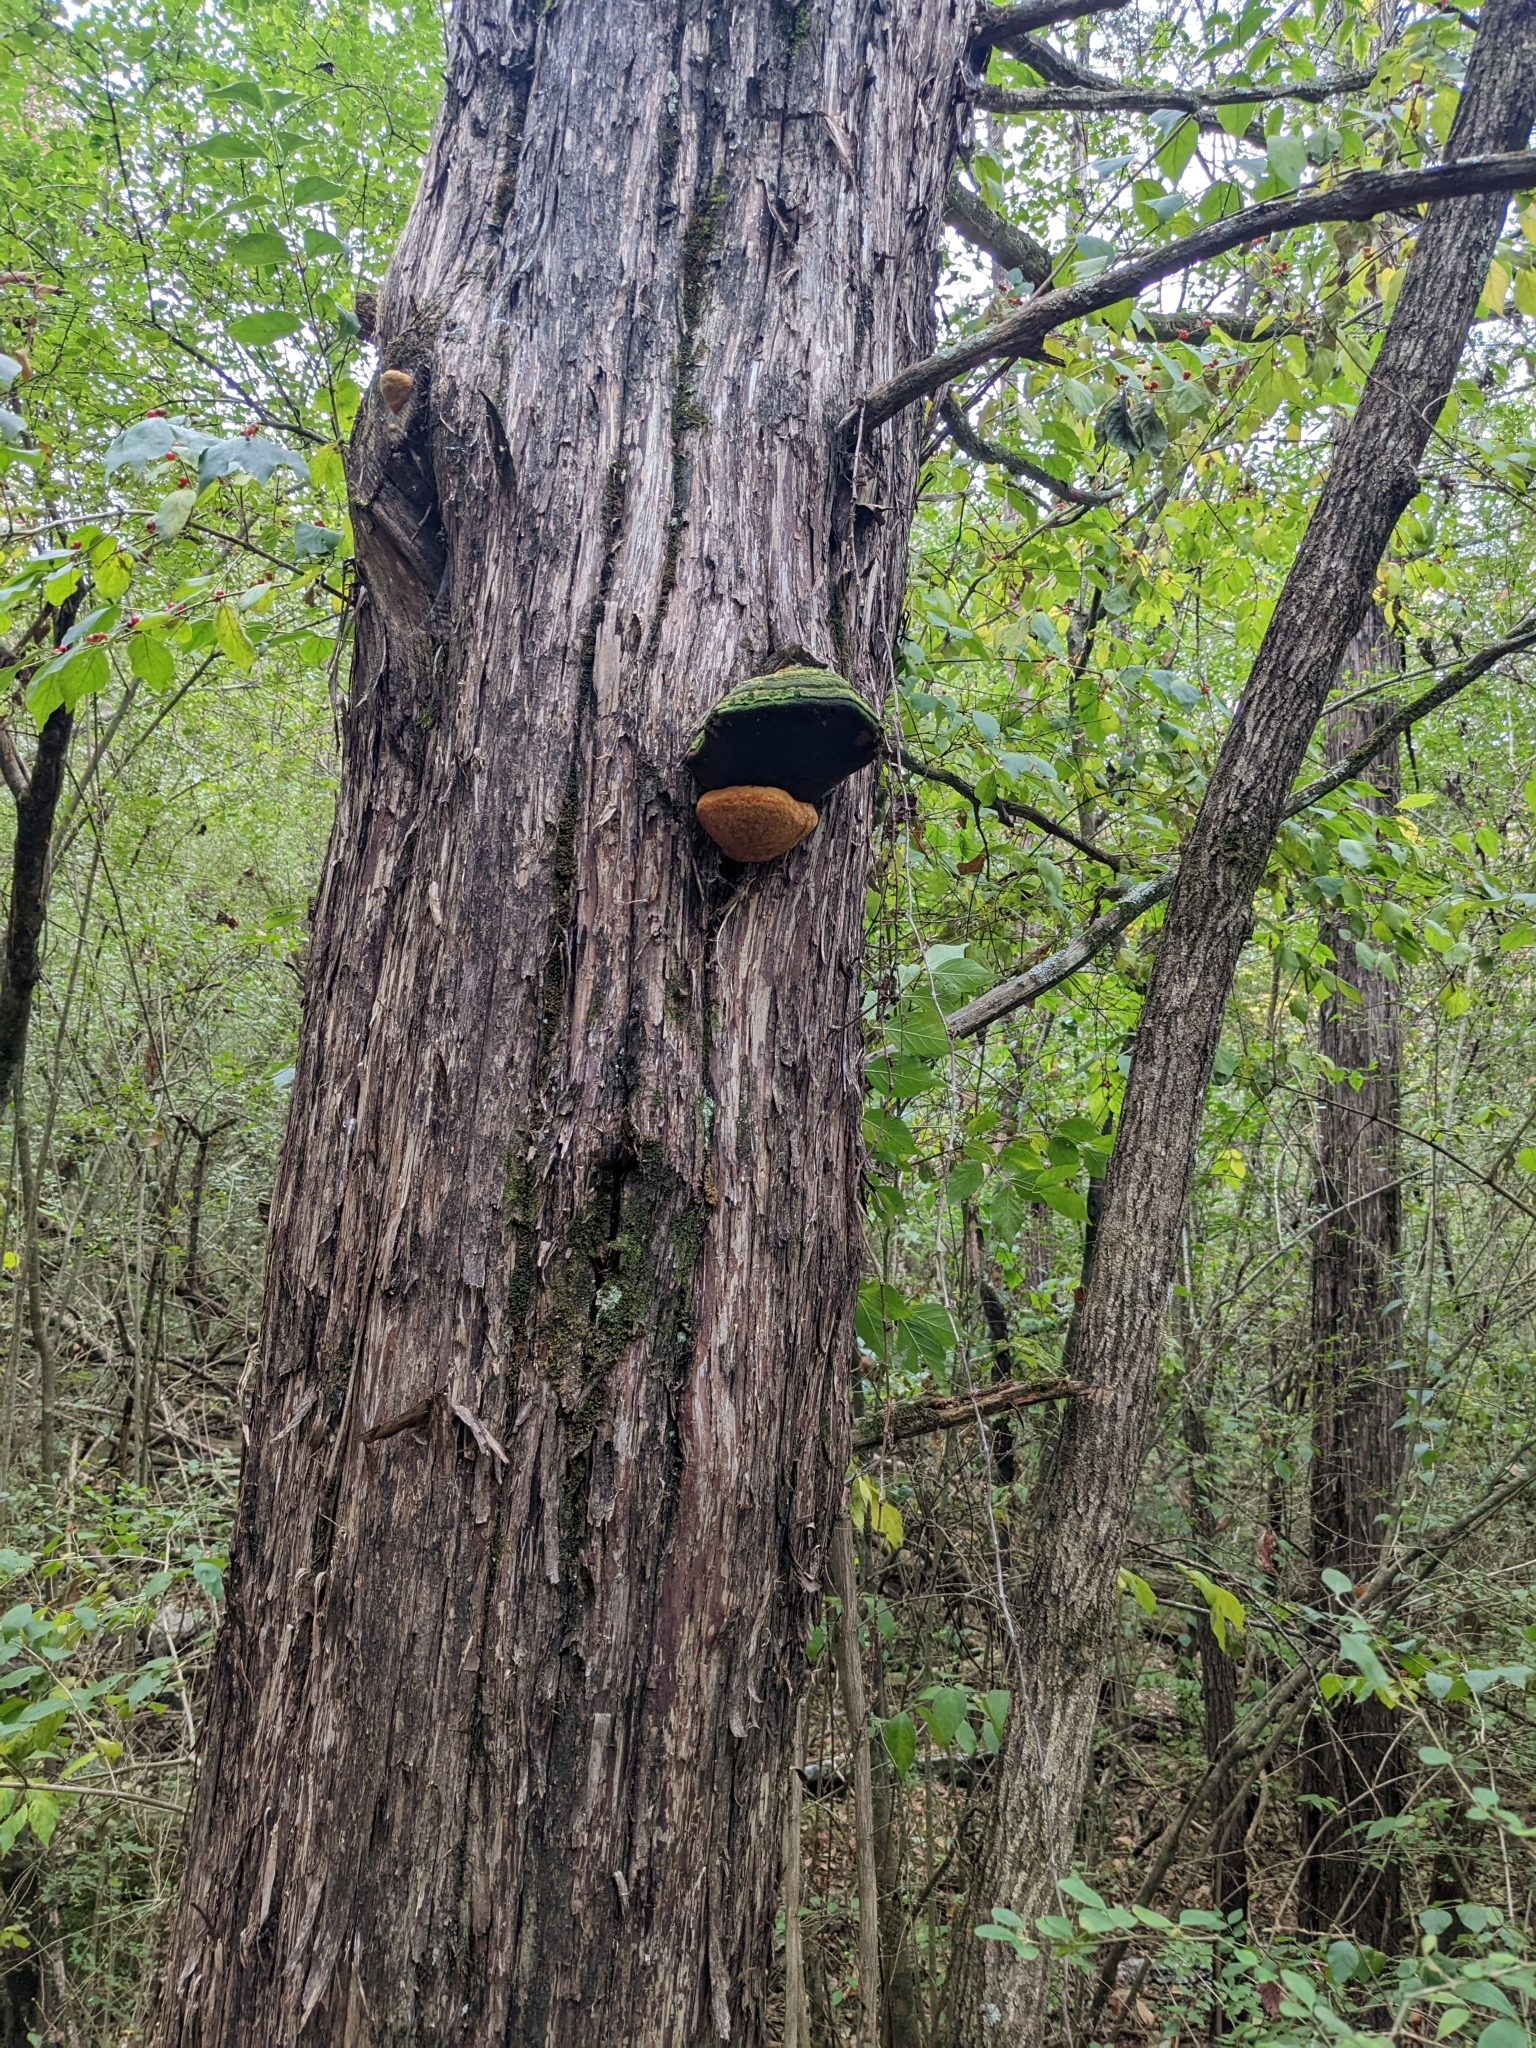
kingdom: Fungi
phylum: Basidiomycota
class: Agaricomycetes
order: Polyporales
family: Polyporaceae
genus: Pyrofomes
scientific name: Pyrofomes juniperinus
